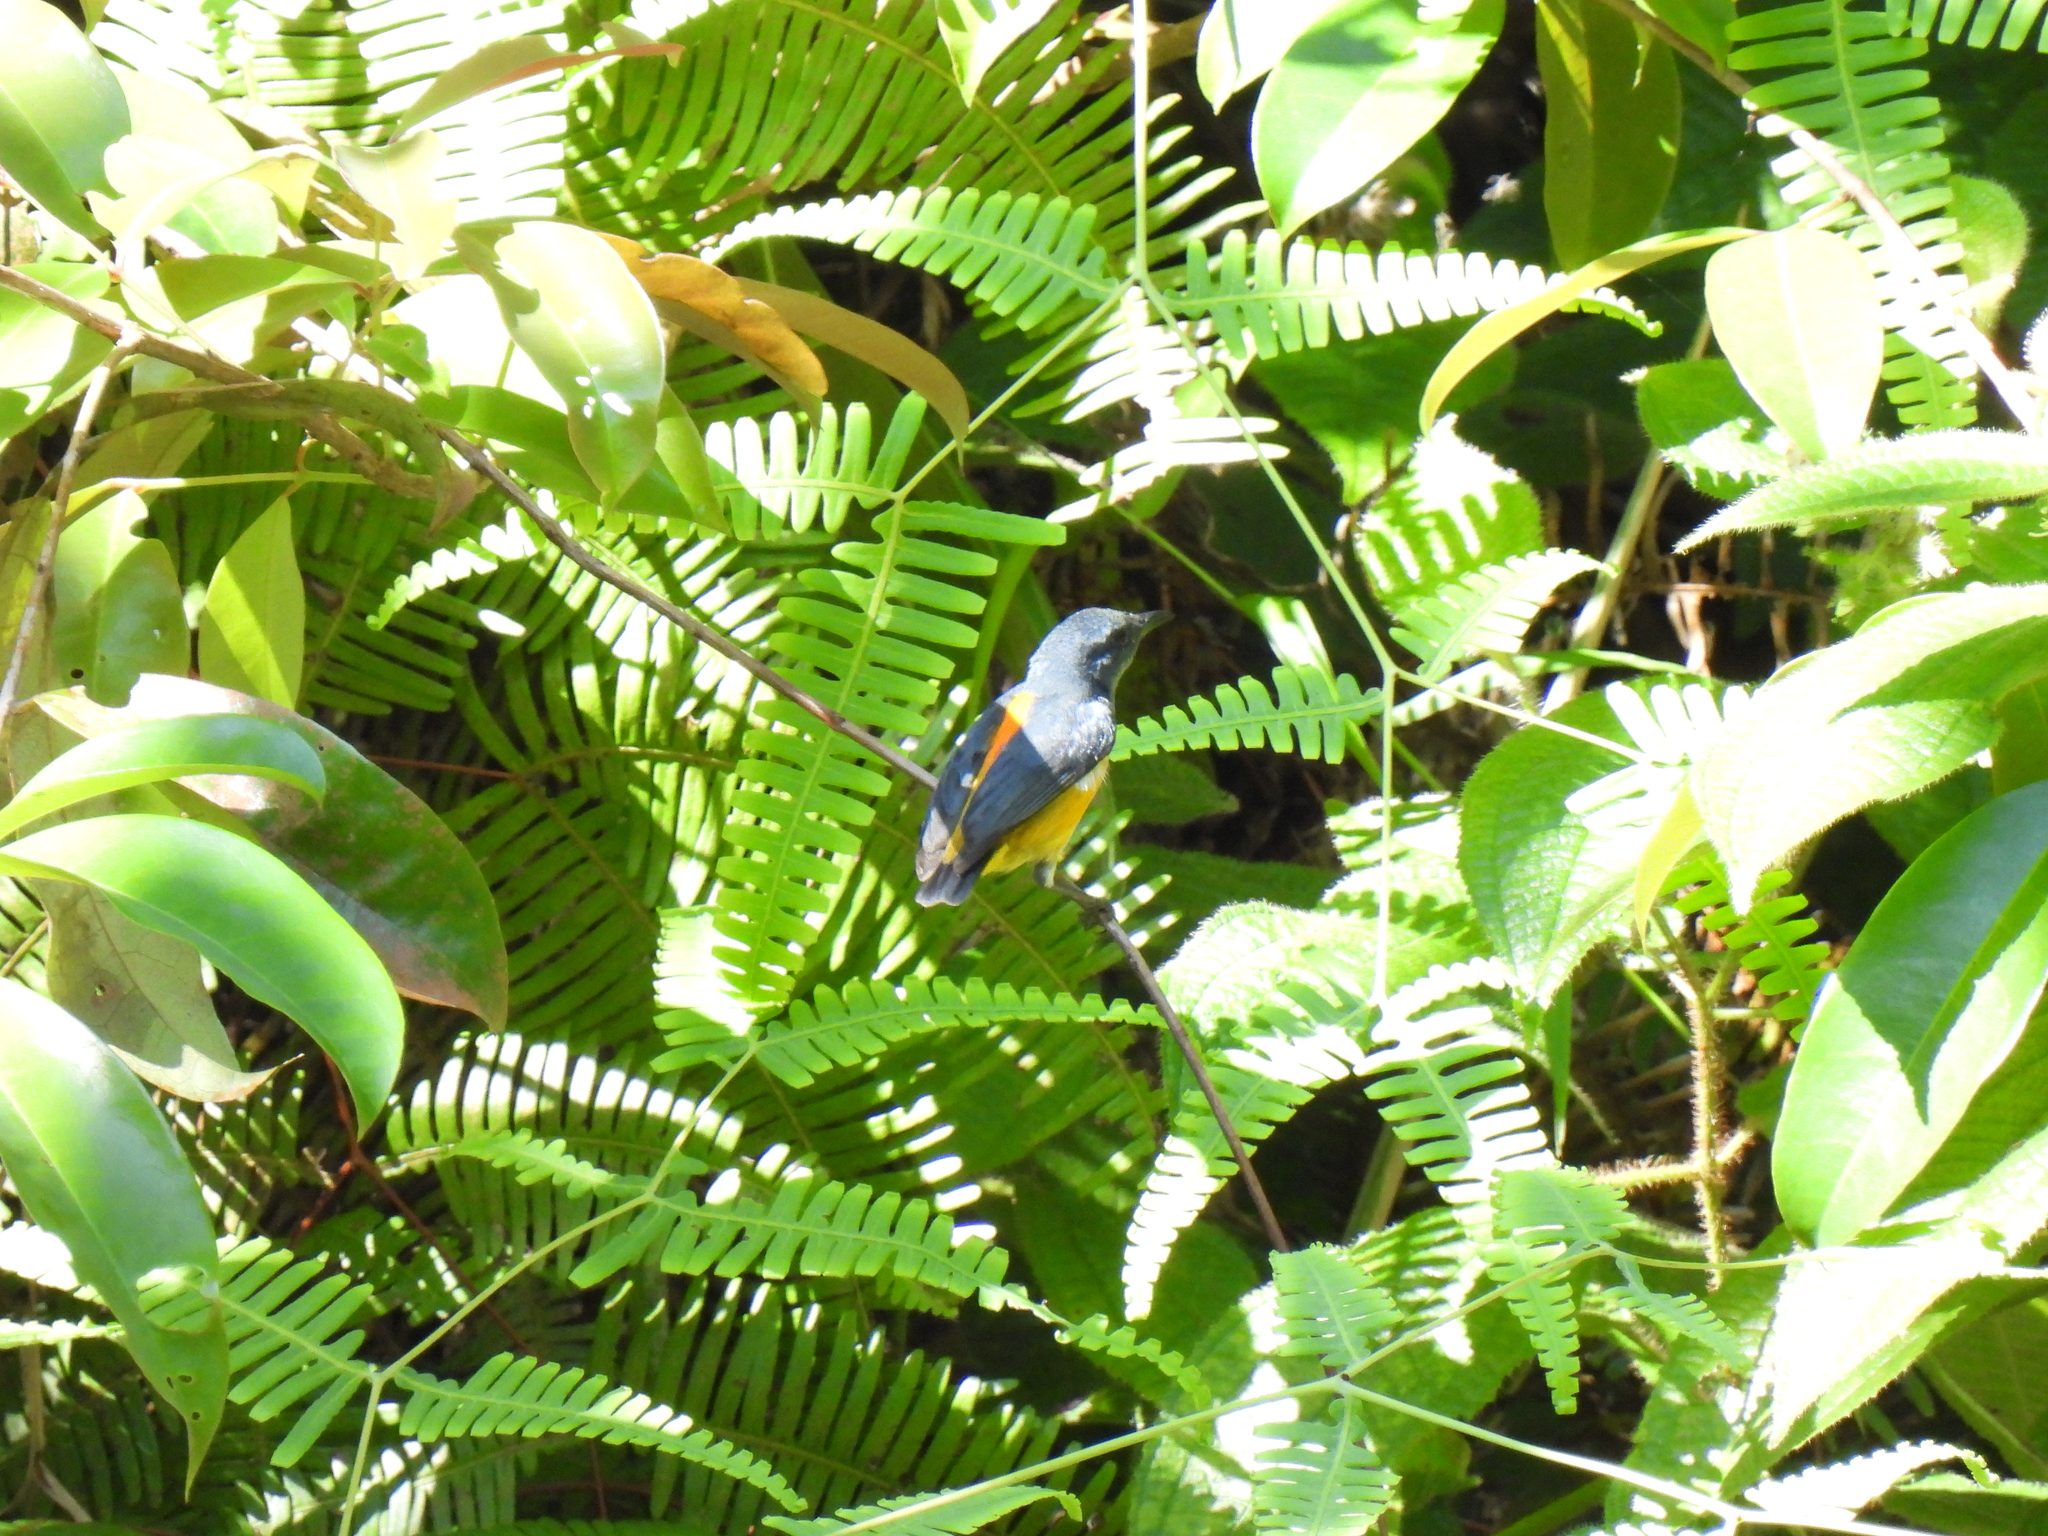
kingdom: Animalia
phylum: Chordata
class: Aves
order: Passeriformes
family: Dicaeidae
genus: Dicaeum
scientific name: Dicaeum trigonostigma
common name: Orange-bellied flowerpecker
